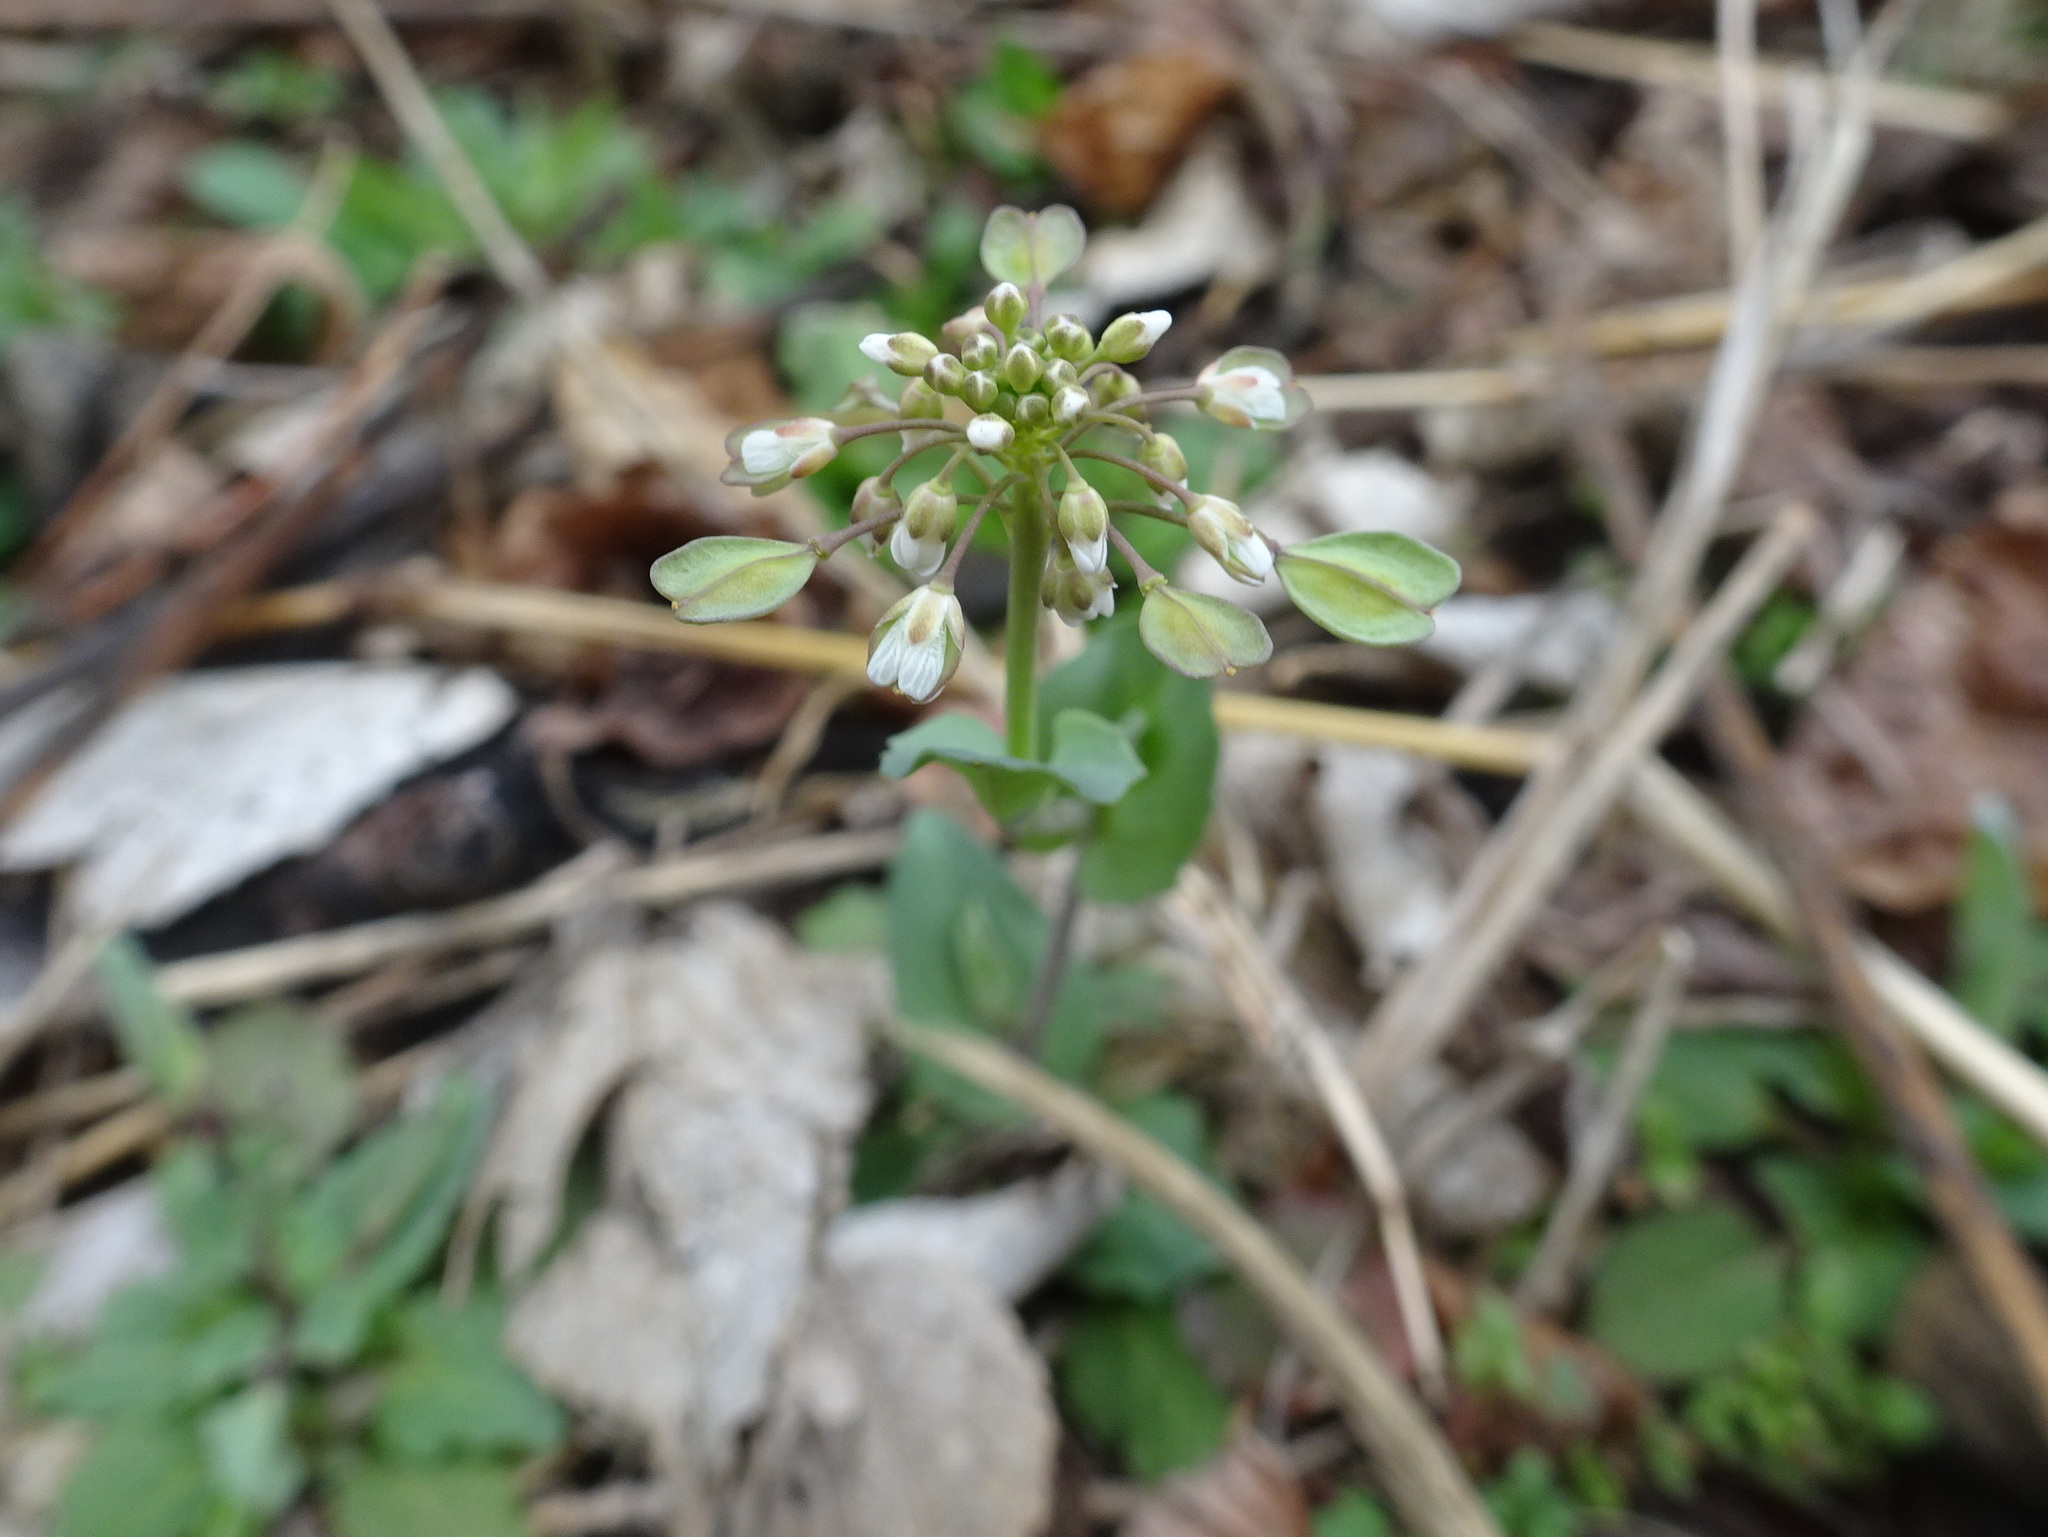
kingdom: Plantae
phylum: Tracheophyta
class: Magnoliopsida
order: Brassicales
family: Brassicaceae
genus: Noccaea
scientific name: Noccaea perfoliata
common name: Perfoliate pennycress
